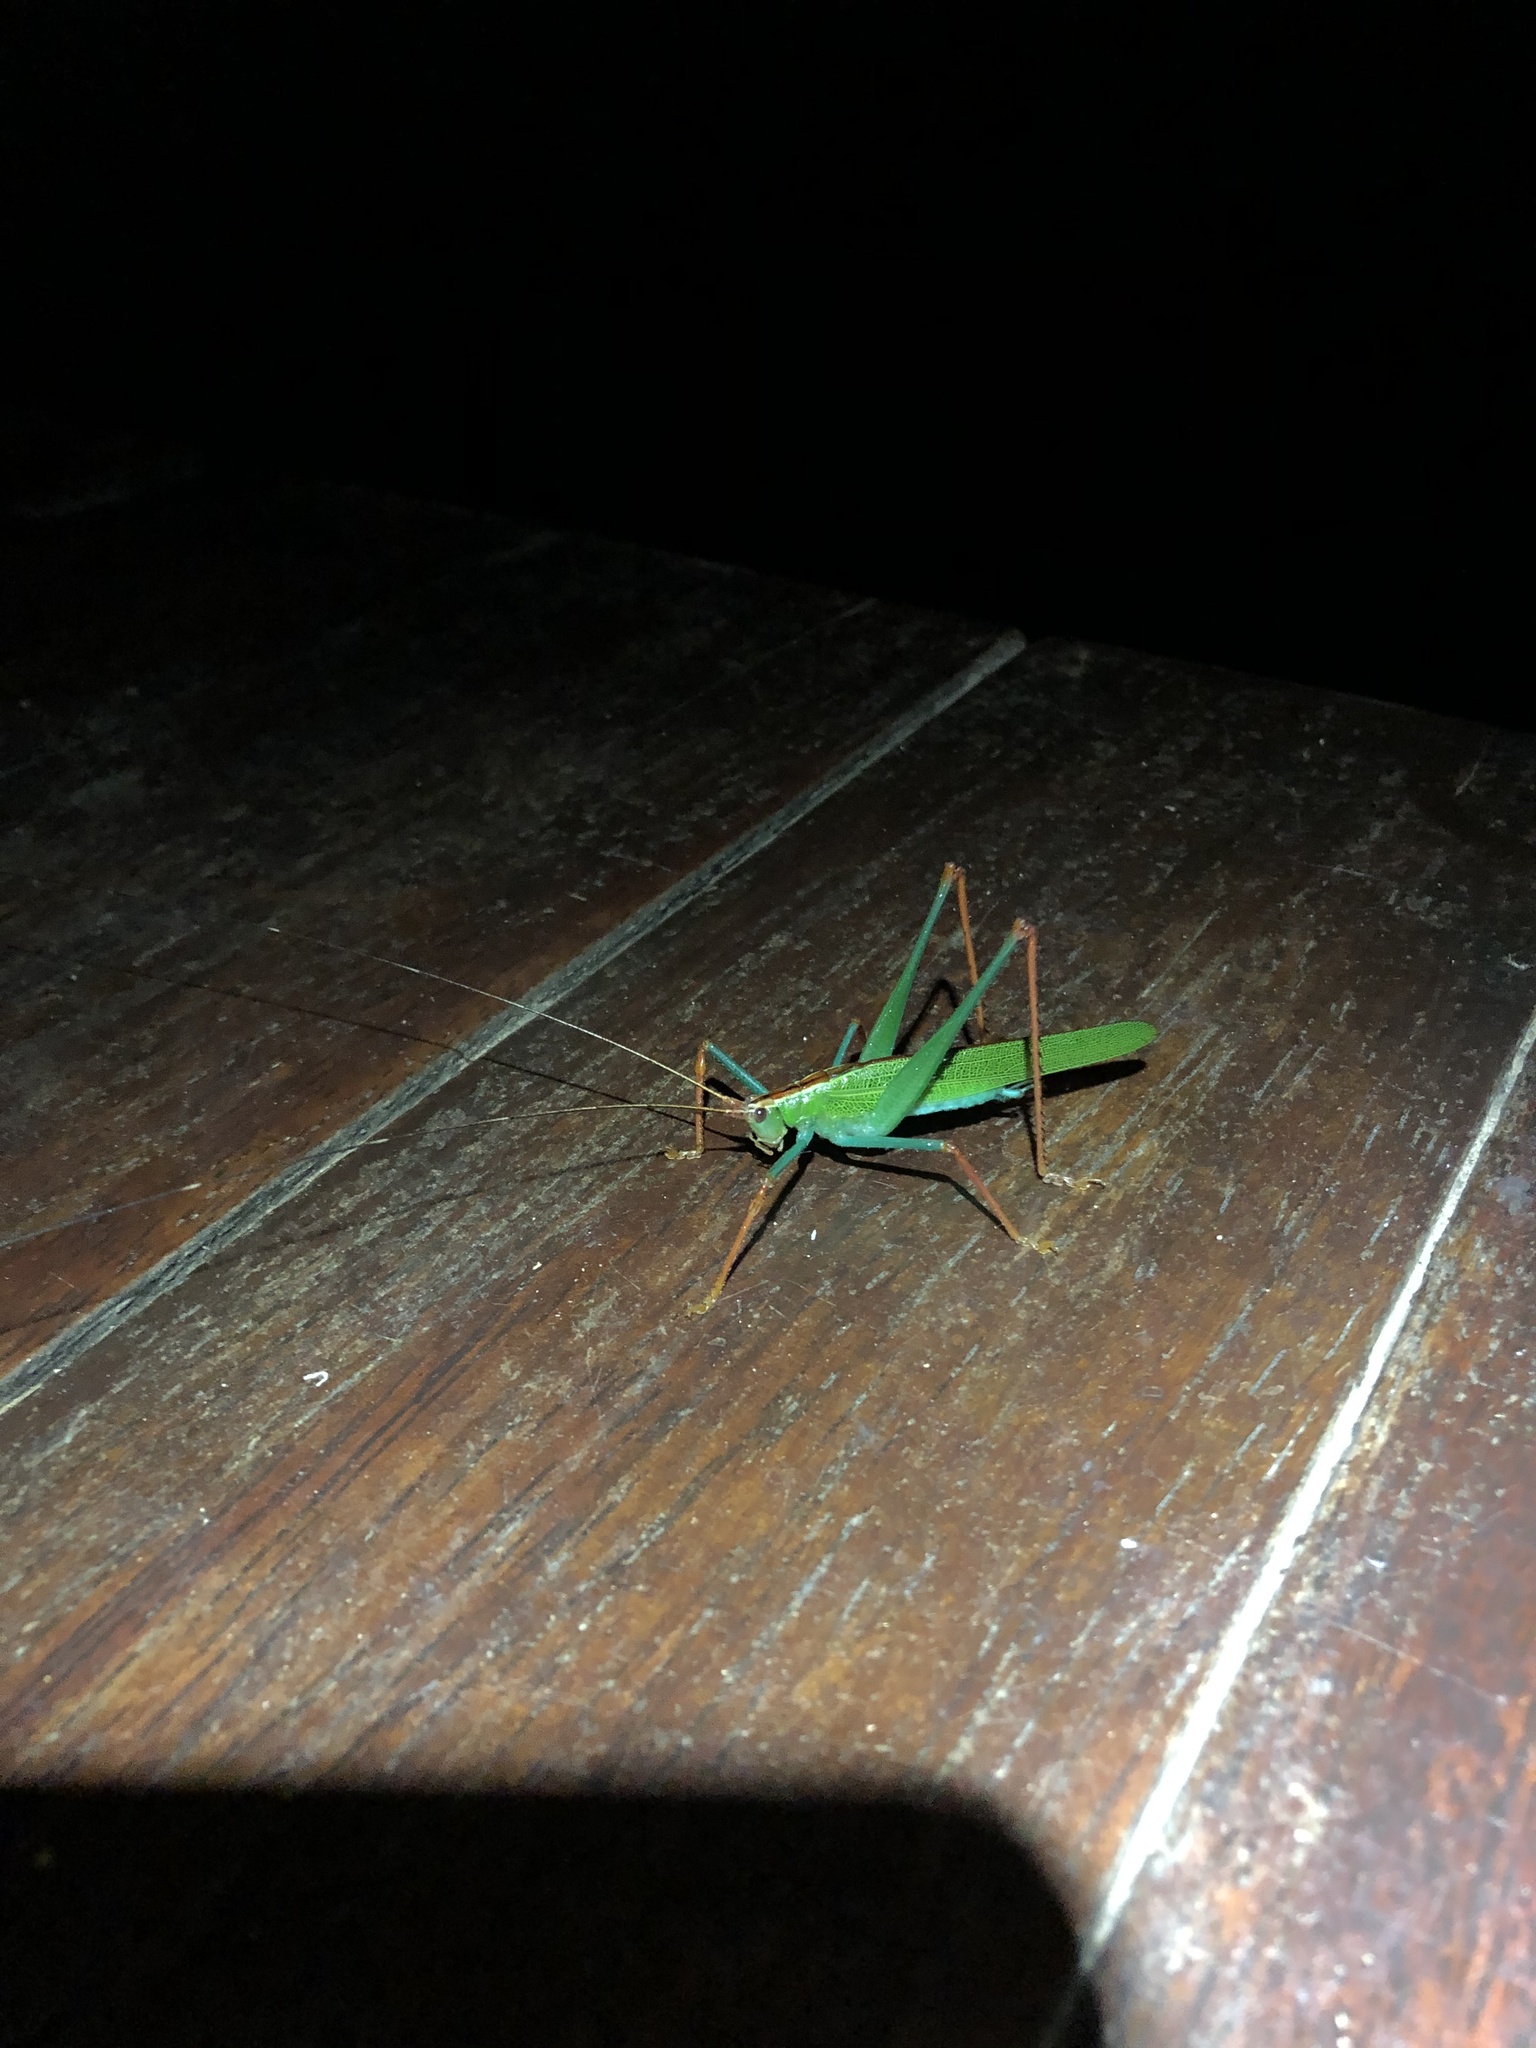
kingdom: Animalia
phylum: Arthropoda
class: Insecta
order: Orthoptera
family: Tettigoniidae
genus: Jimenezia
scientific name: Jimenezia elegans
